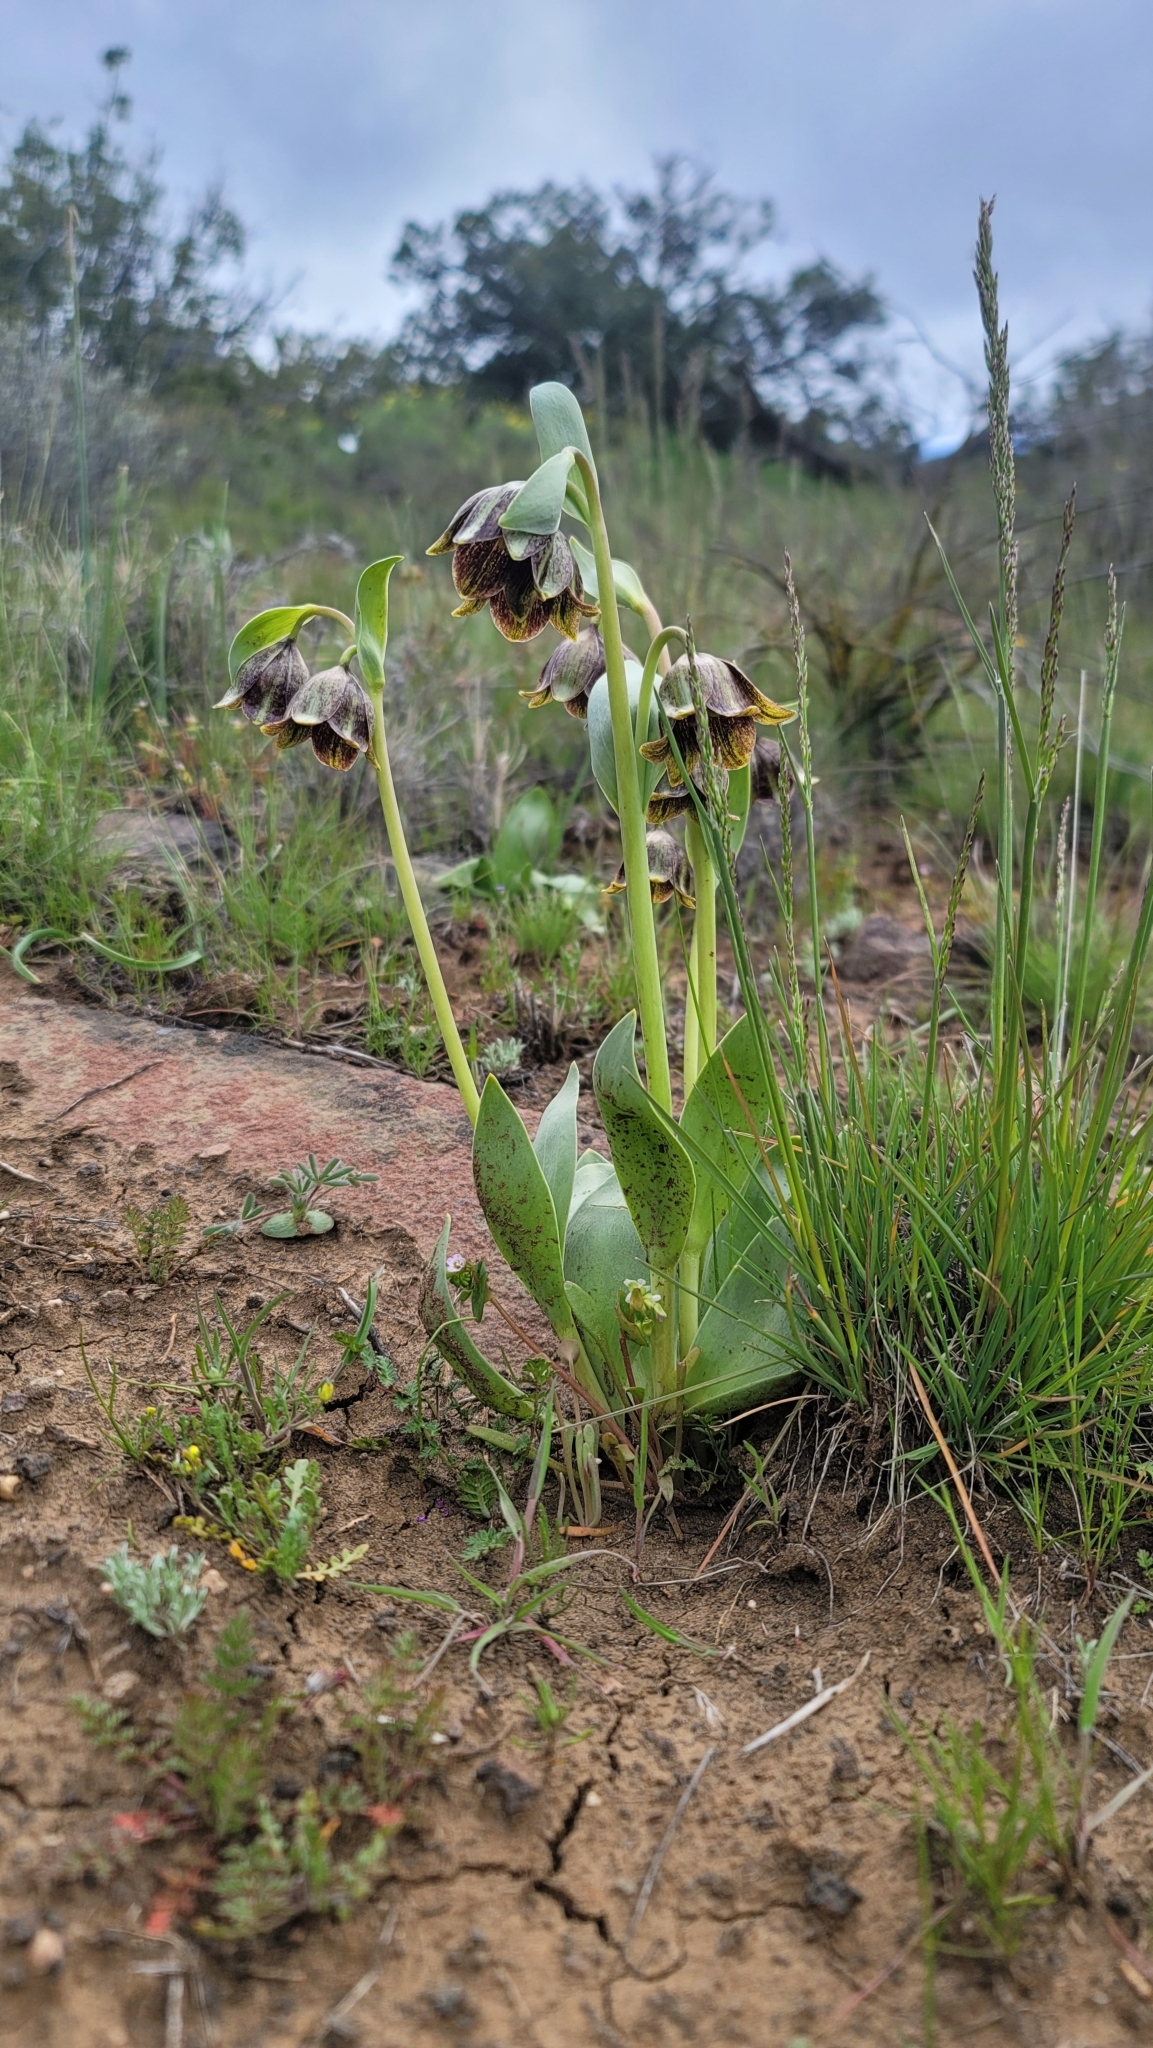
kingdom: Plantae
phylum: Tracheophyta
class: Liliopsida
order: Liliales
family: Liliaceae
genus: Fritillaria
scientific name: Fritillaria agrestis
